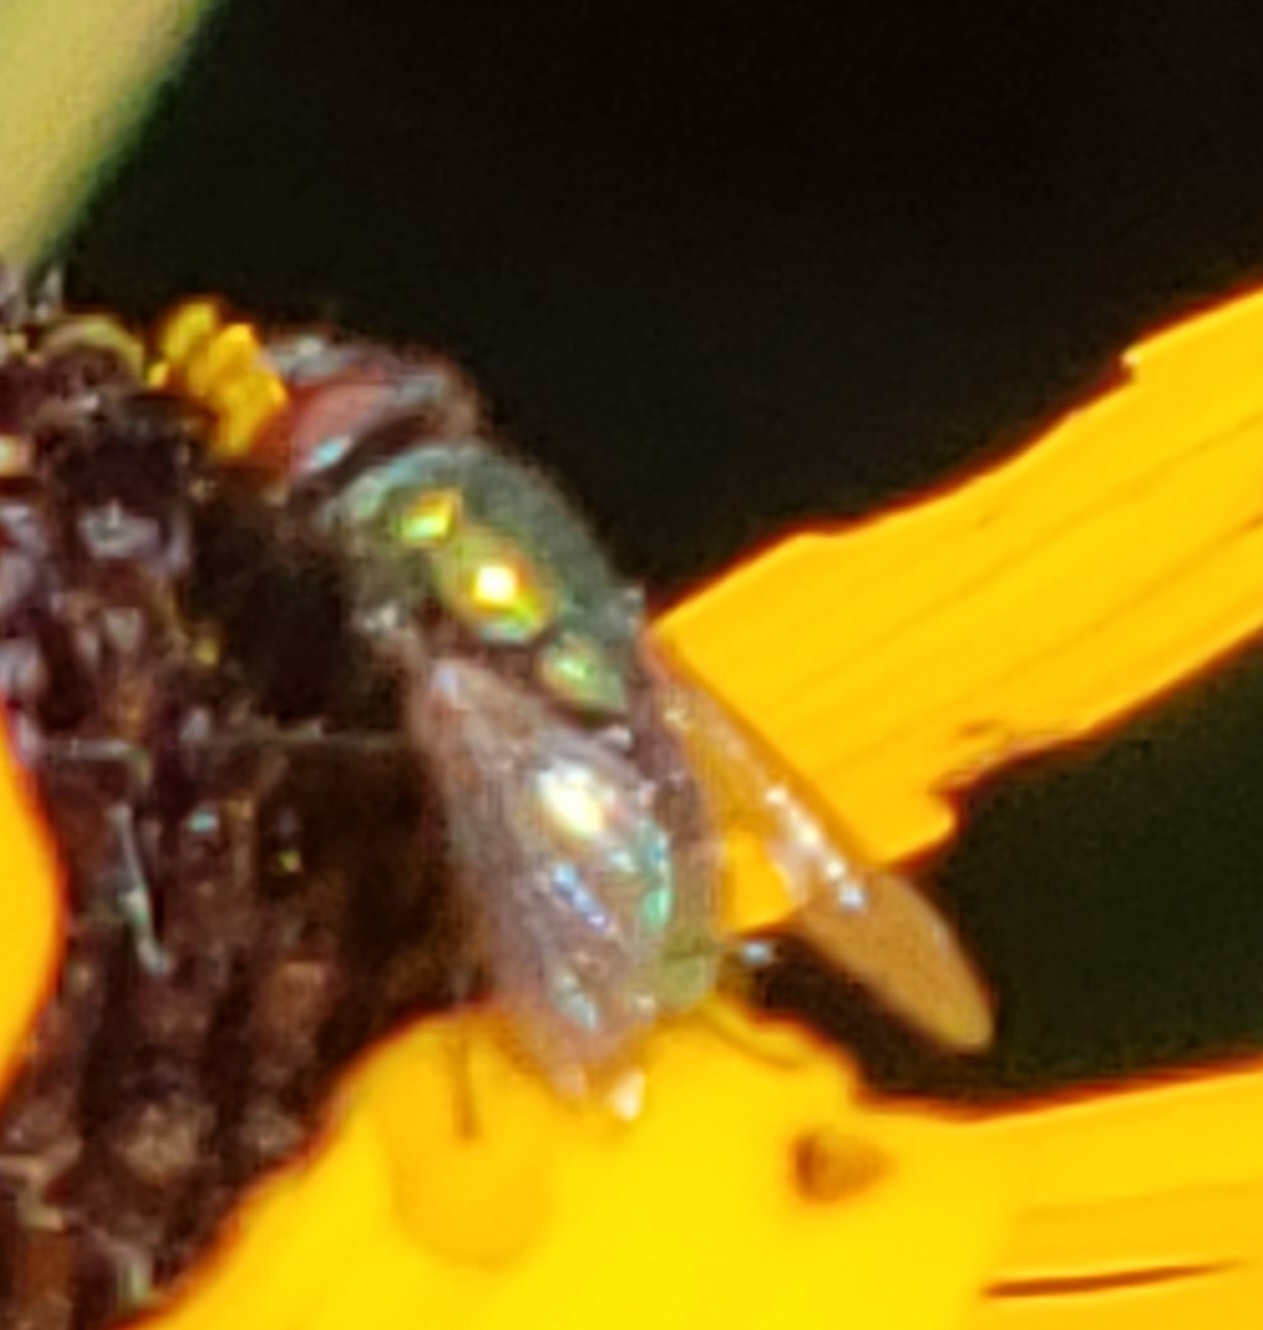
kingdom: Animalia
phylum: Arthropoda
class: Insecta
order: Diptera
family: Calliphoridae
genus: Lucilia
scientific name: Lucilia
